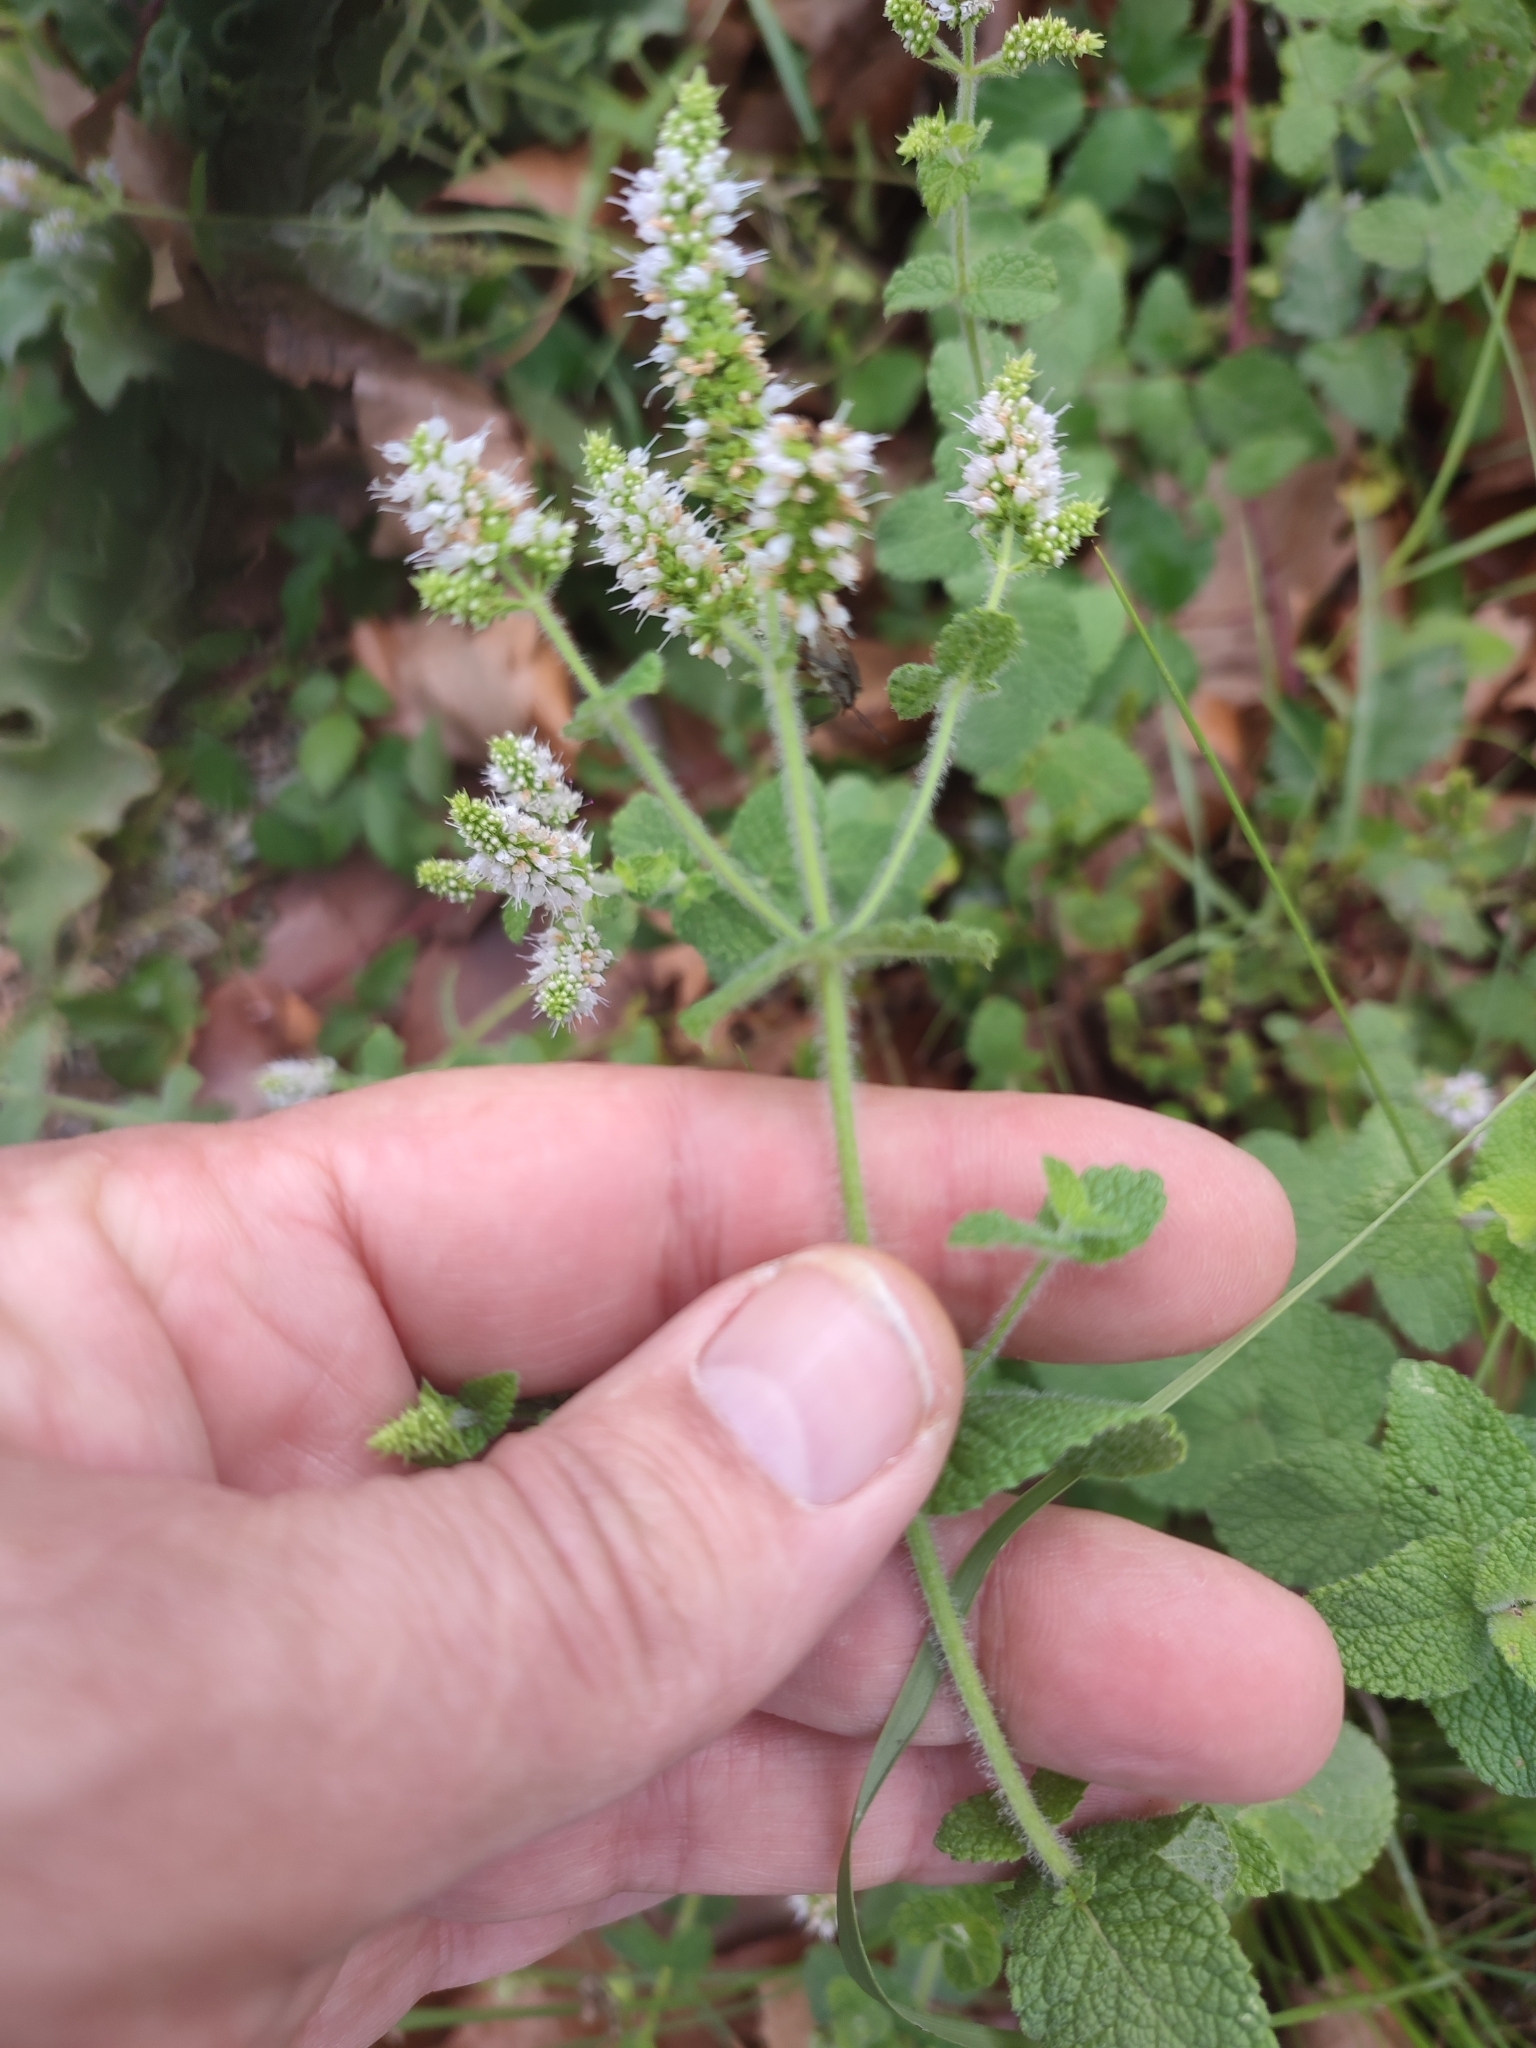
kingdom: Plantae
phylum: Tracheophyta
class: Magnoliopsida
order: Lamiales
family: Lamiaceae
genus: Mentha
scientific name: Mentha suaveolens
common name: Apple mint
